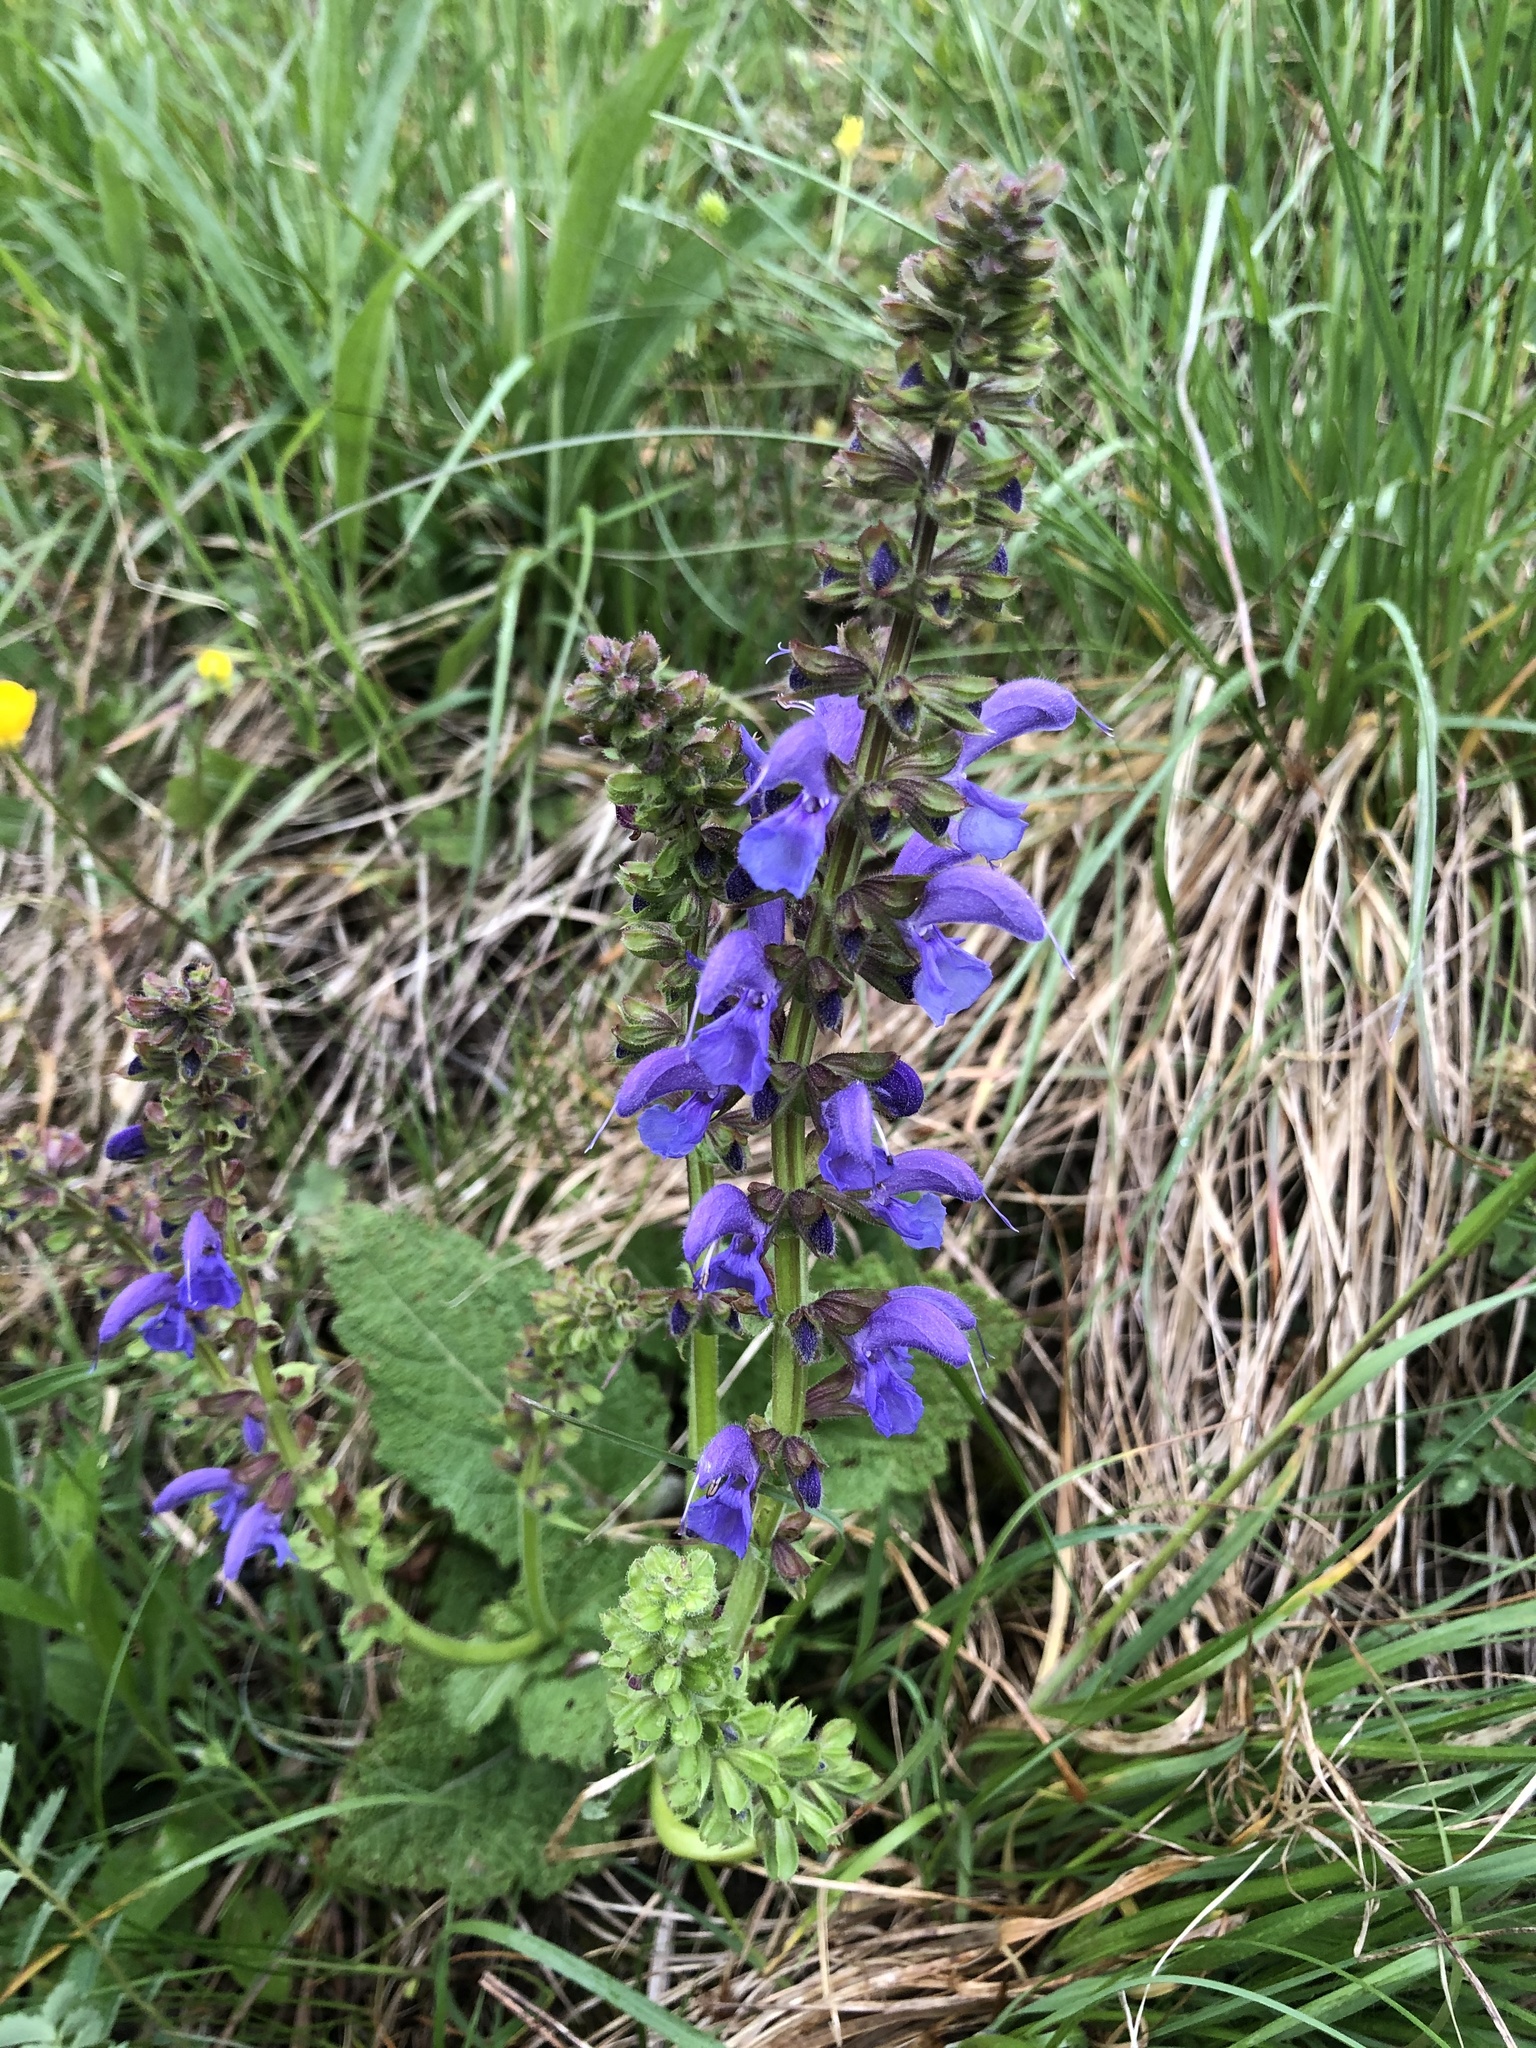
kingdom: Plantae
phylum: Tracheophyta
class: Magnoliopsida
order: Lamiales
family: Lamiaceae
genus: Salvia
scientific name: Salvia pratensis
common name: Meadow sage
